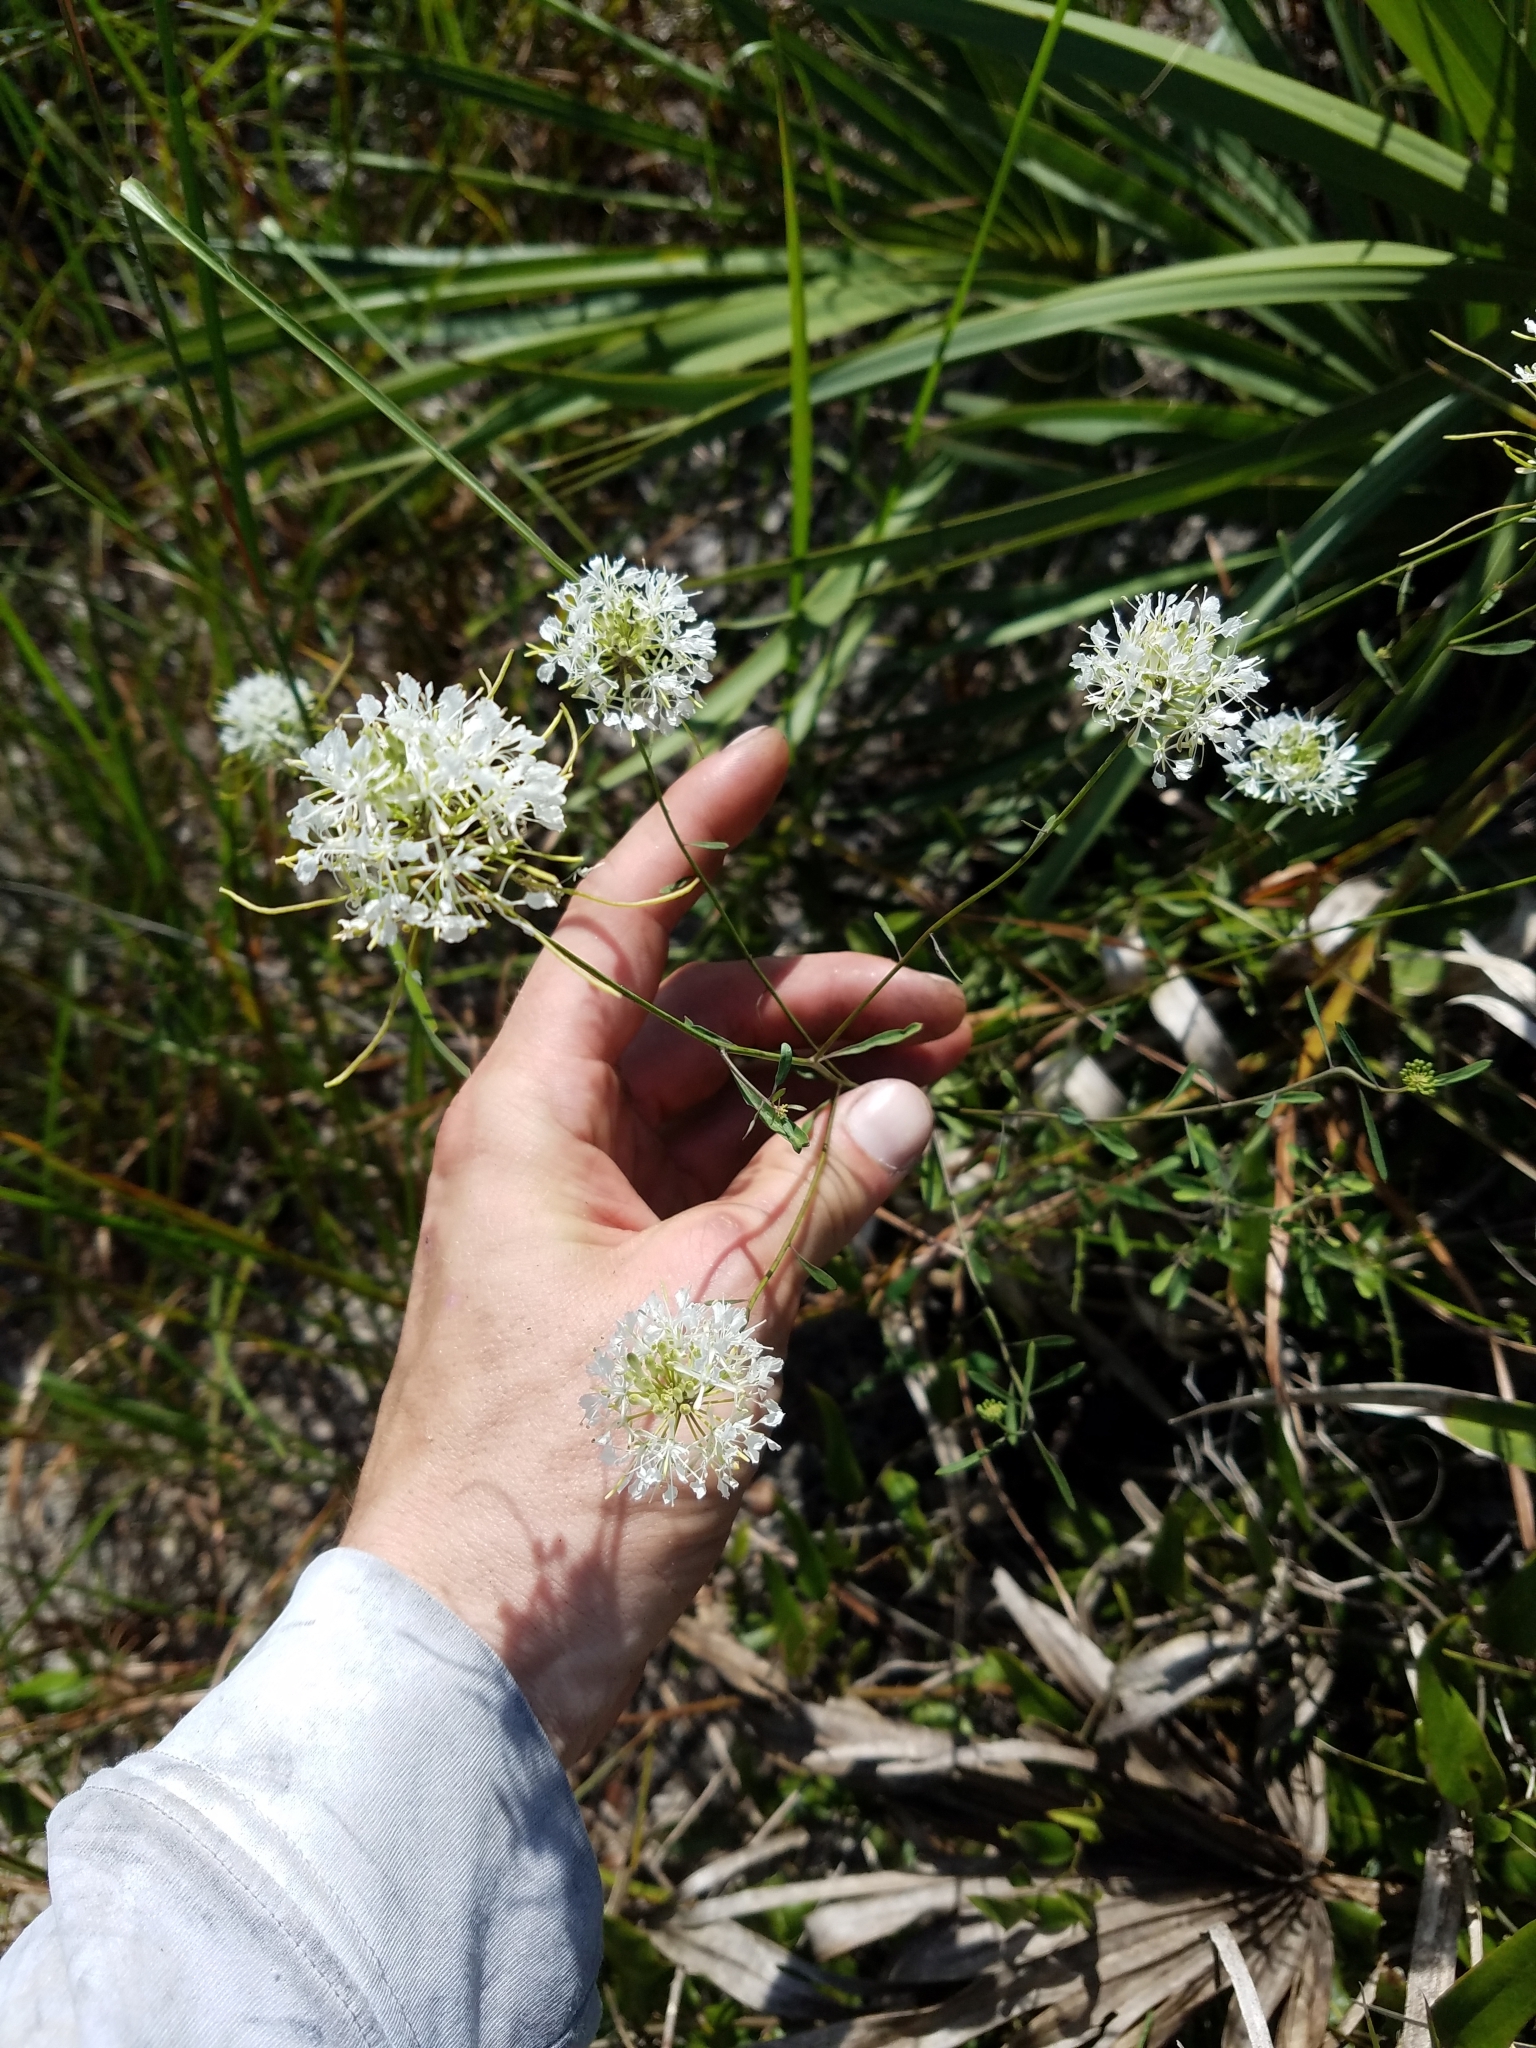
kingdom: Plantae
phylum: Tracheophyta
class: Magnoliopsida
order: Brassicales
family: Brassicaceae
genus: Warea
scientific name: Warea carteri
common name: Carter's mustard
